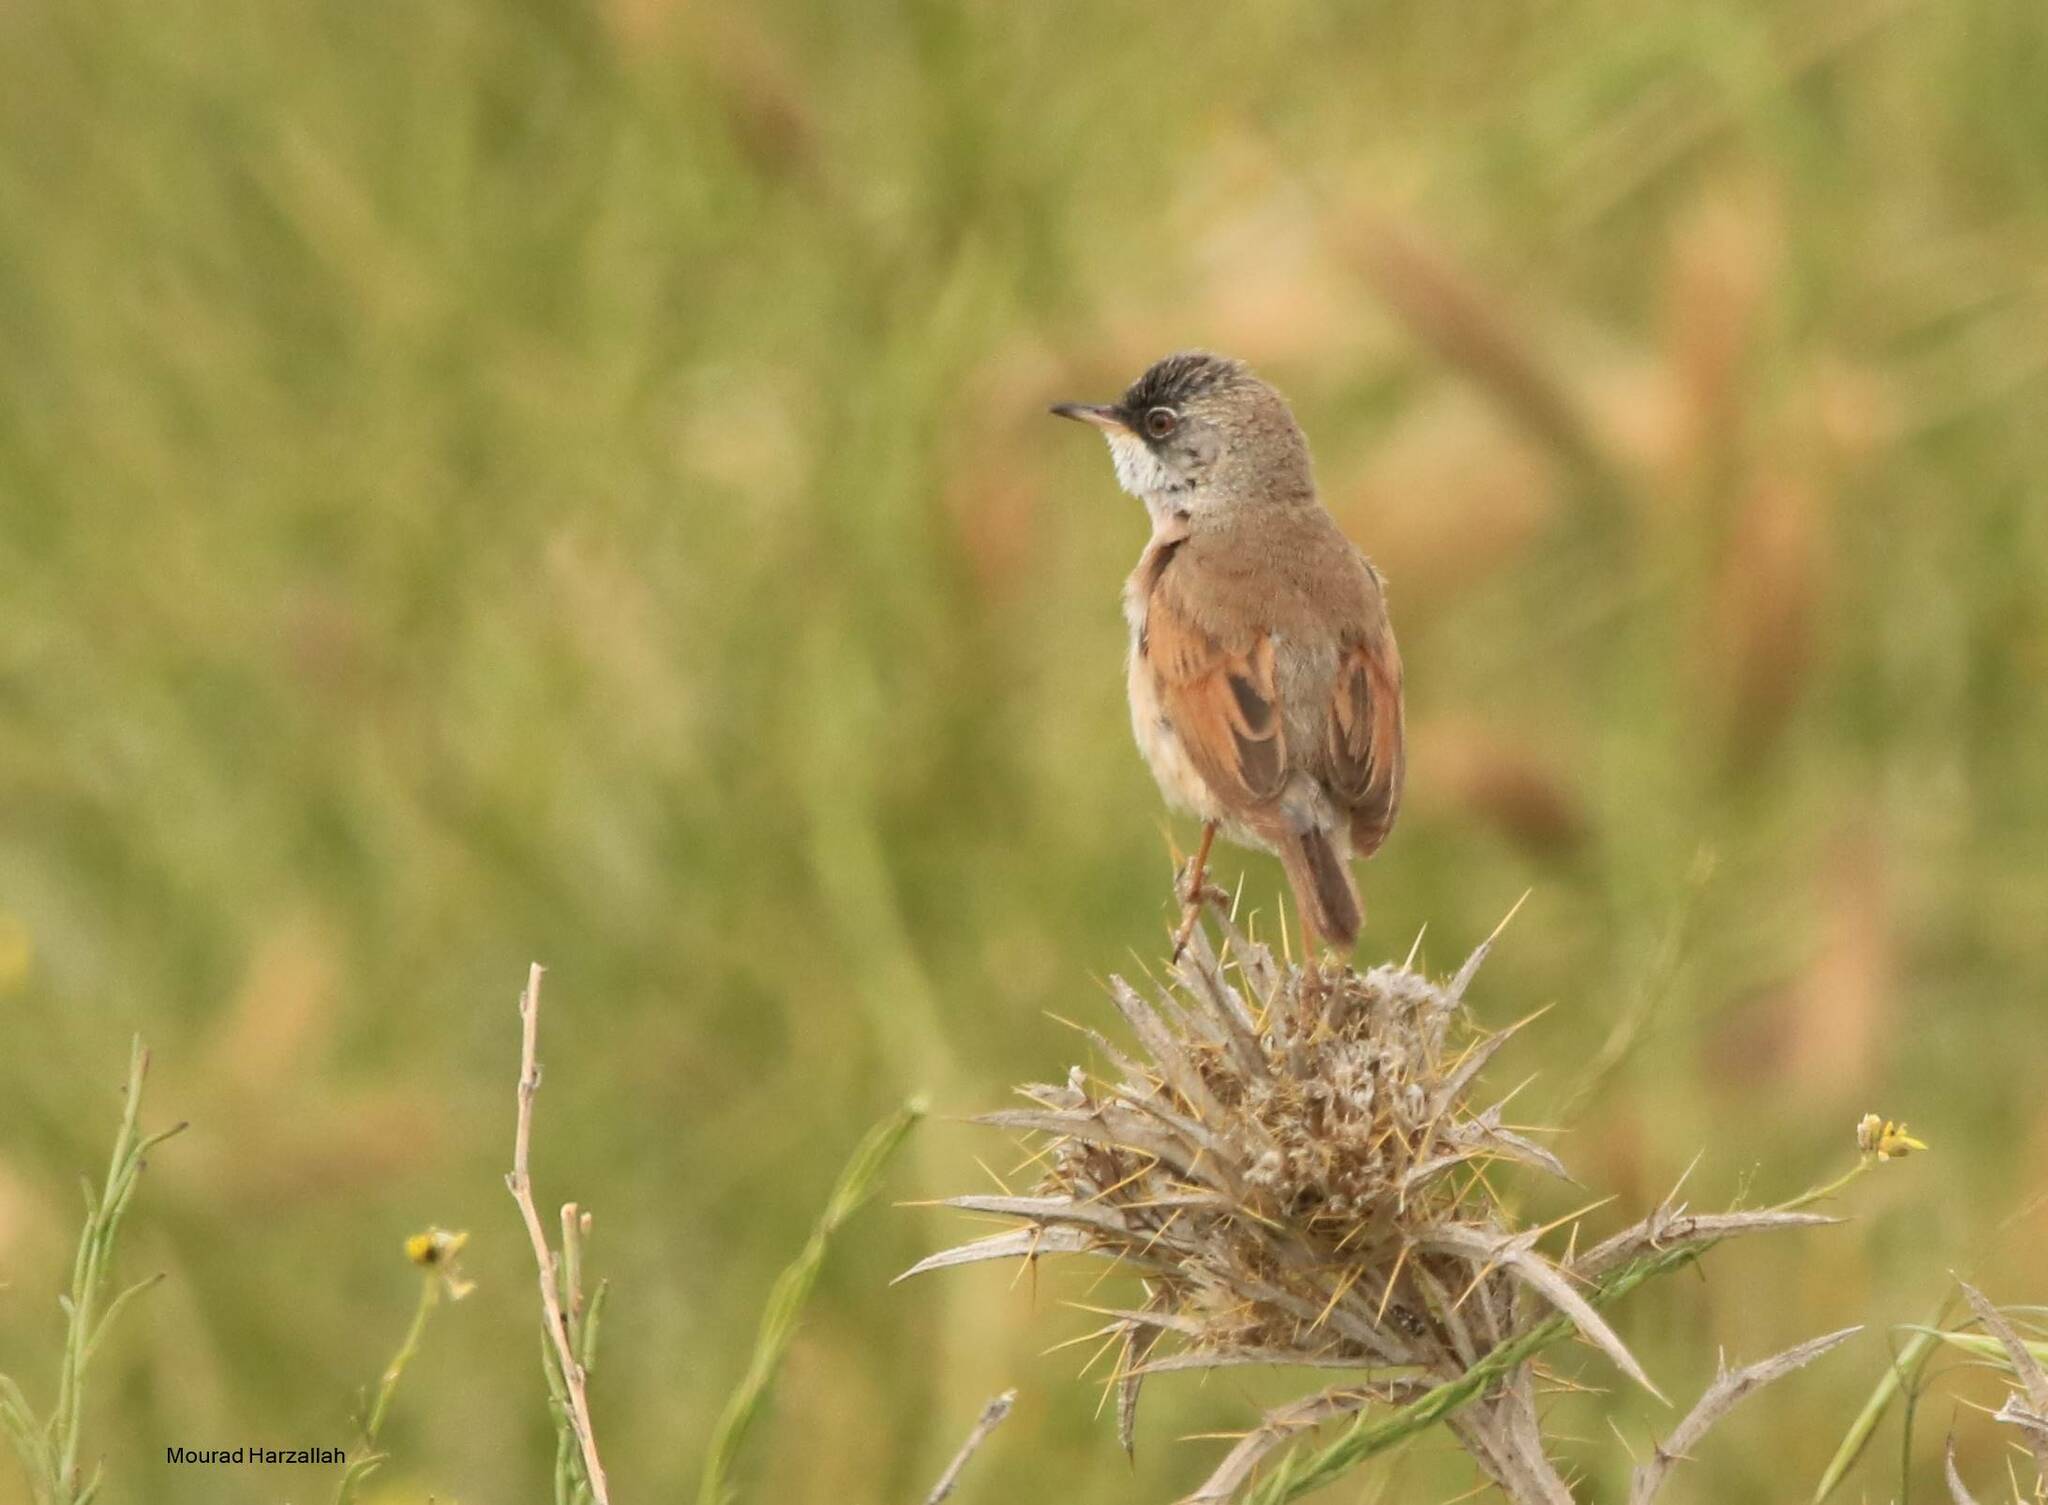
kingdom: Animalia
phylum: Chordata
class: Aves
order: Passeriformes
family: Sylviidae
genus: Sylvia
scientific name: Sylvia conspicillata
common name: Spectacled warbler
